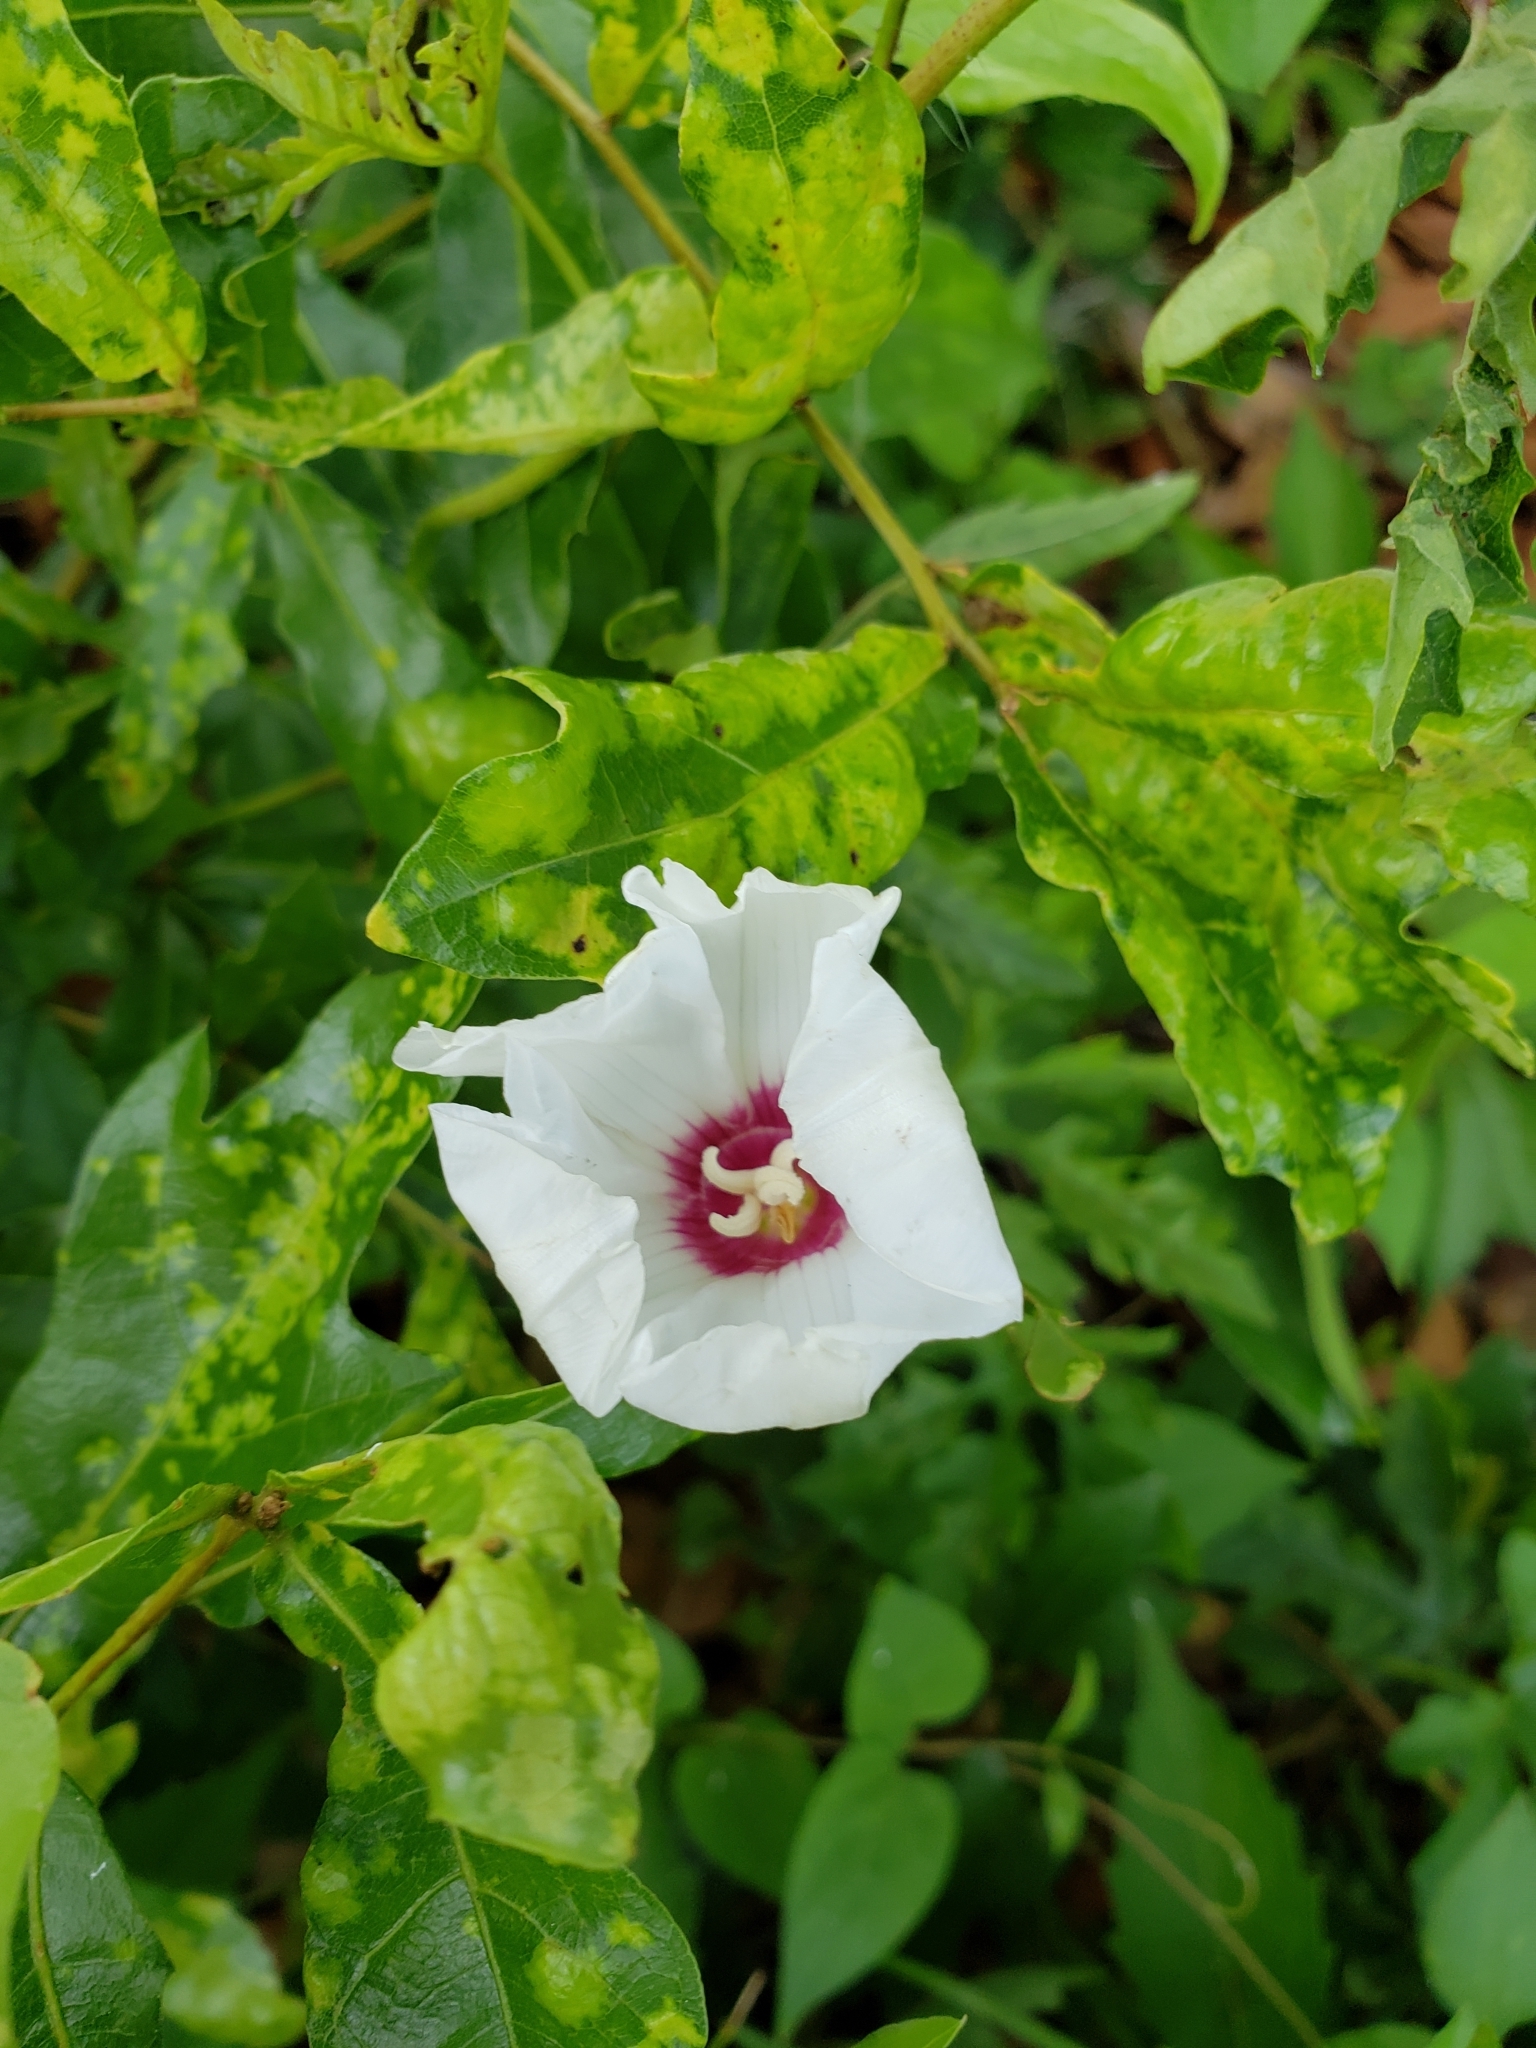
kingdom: Plantae
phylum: Tracheophyta
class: Magnoliopsida
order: Solanales
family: Convolvulaceae
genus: Distimake
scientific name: Distimake dissectus
